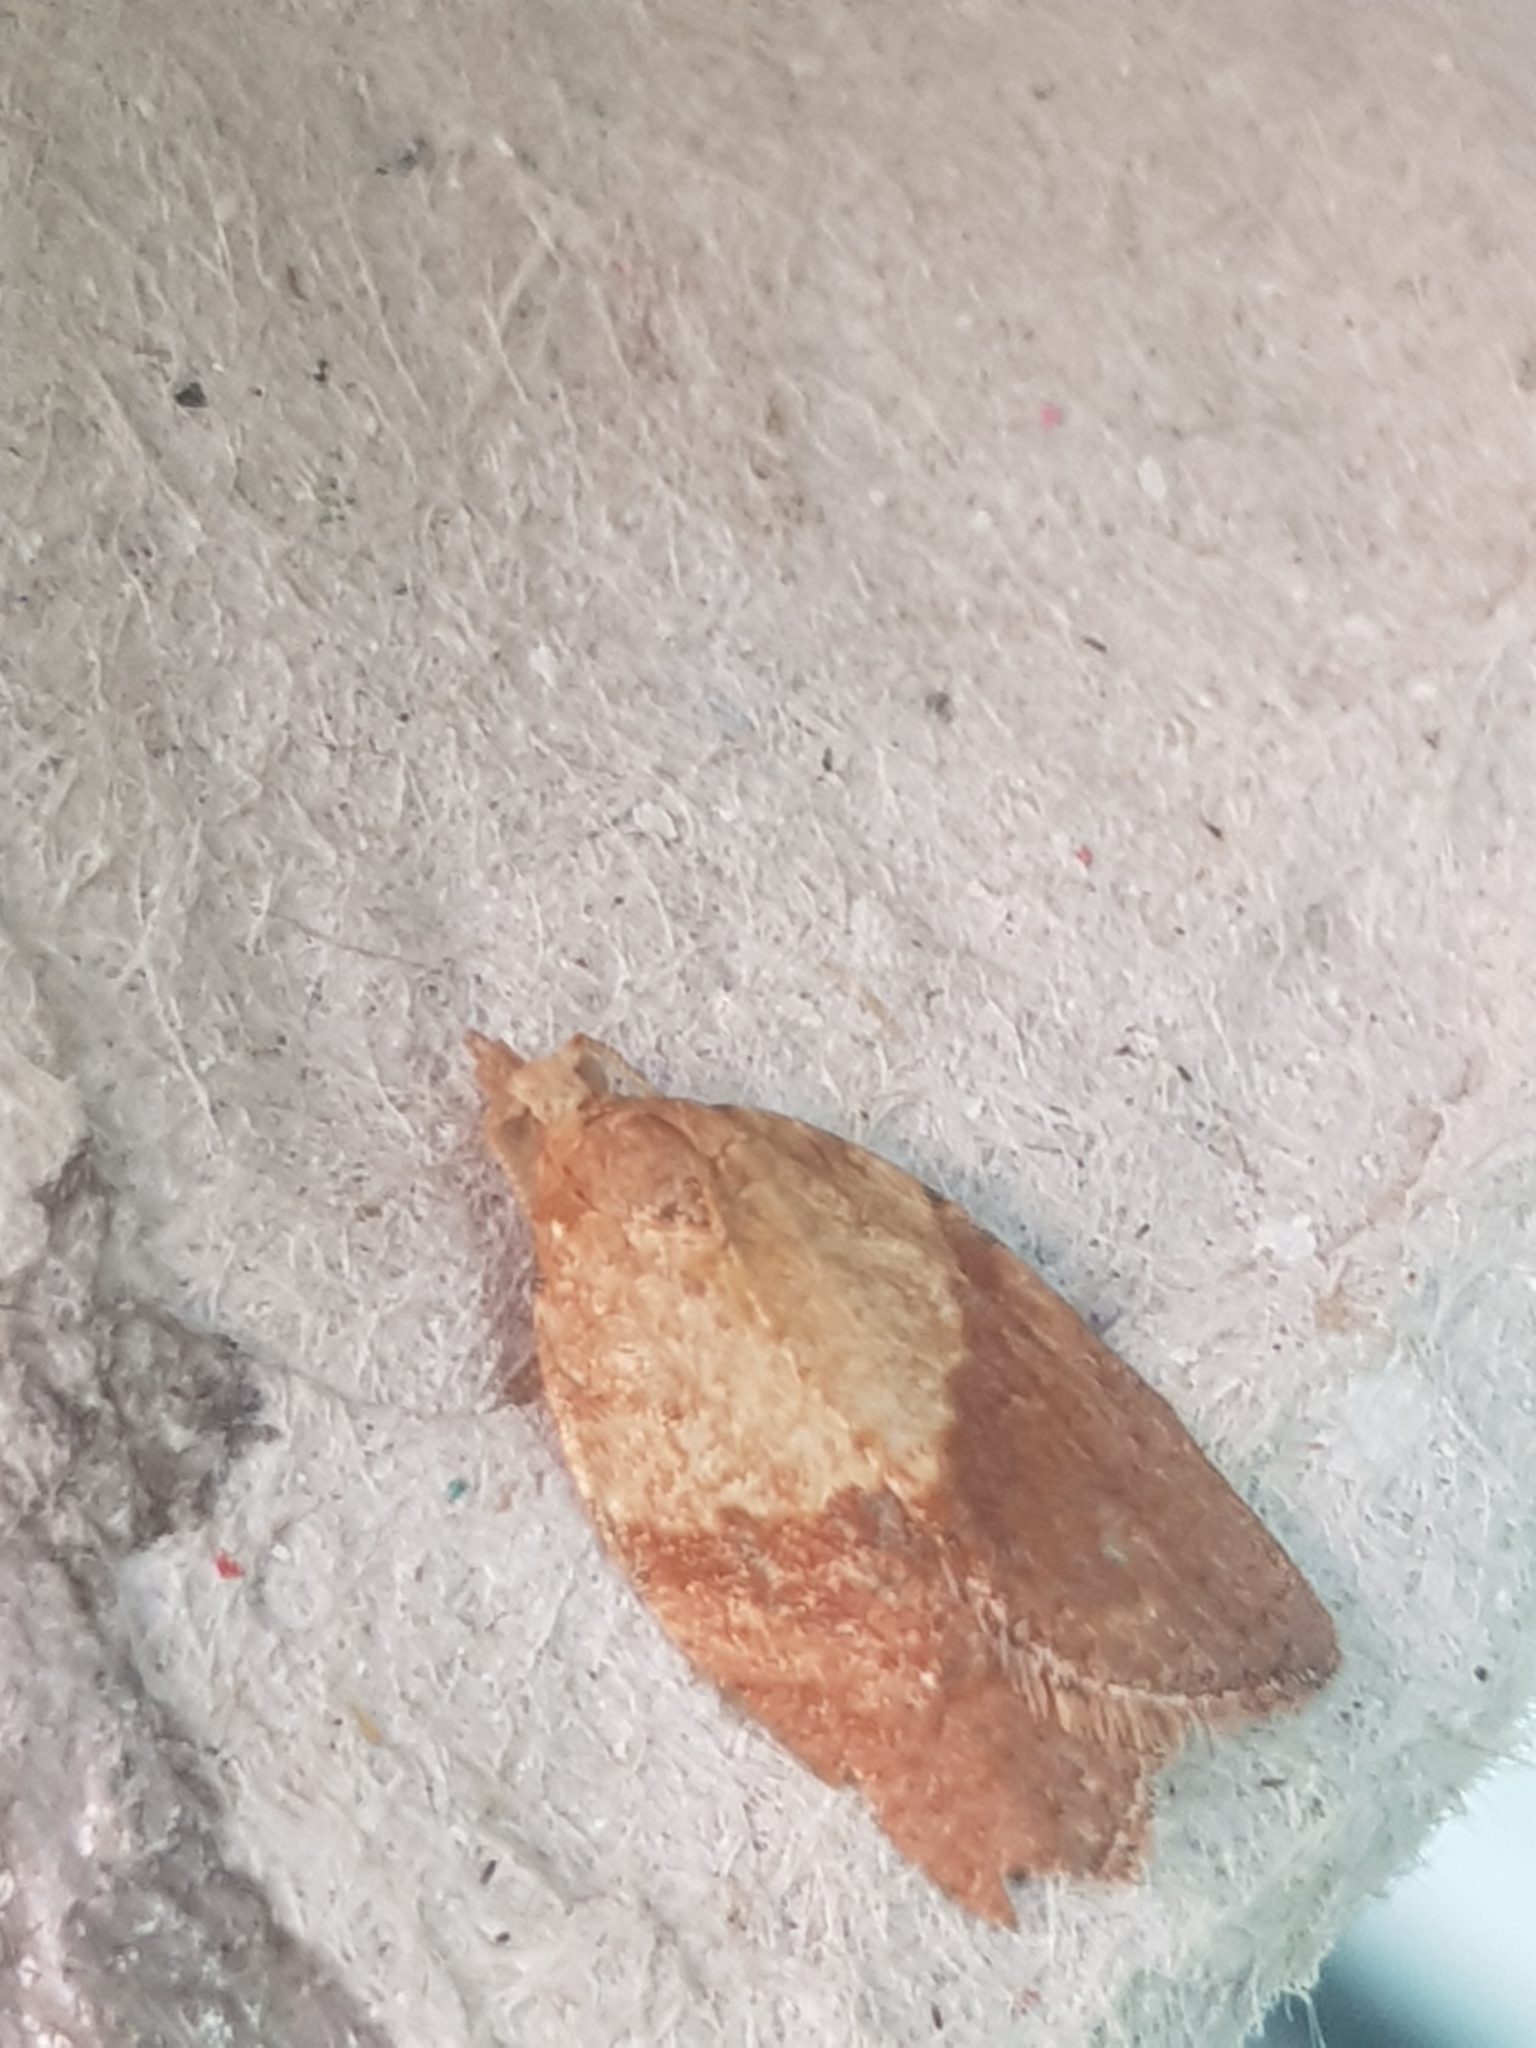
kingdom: Animalia
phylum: Arthropoda
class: Insecta
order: Lepidoptera
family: Tortricidae
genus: Epiphyas
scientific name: Epiphyas postvittana
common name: Light brown apple moth
